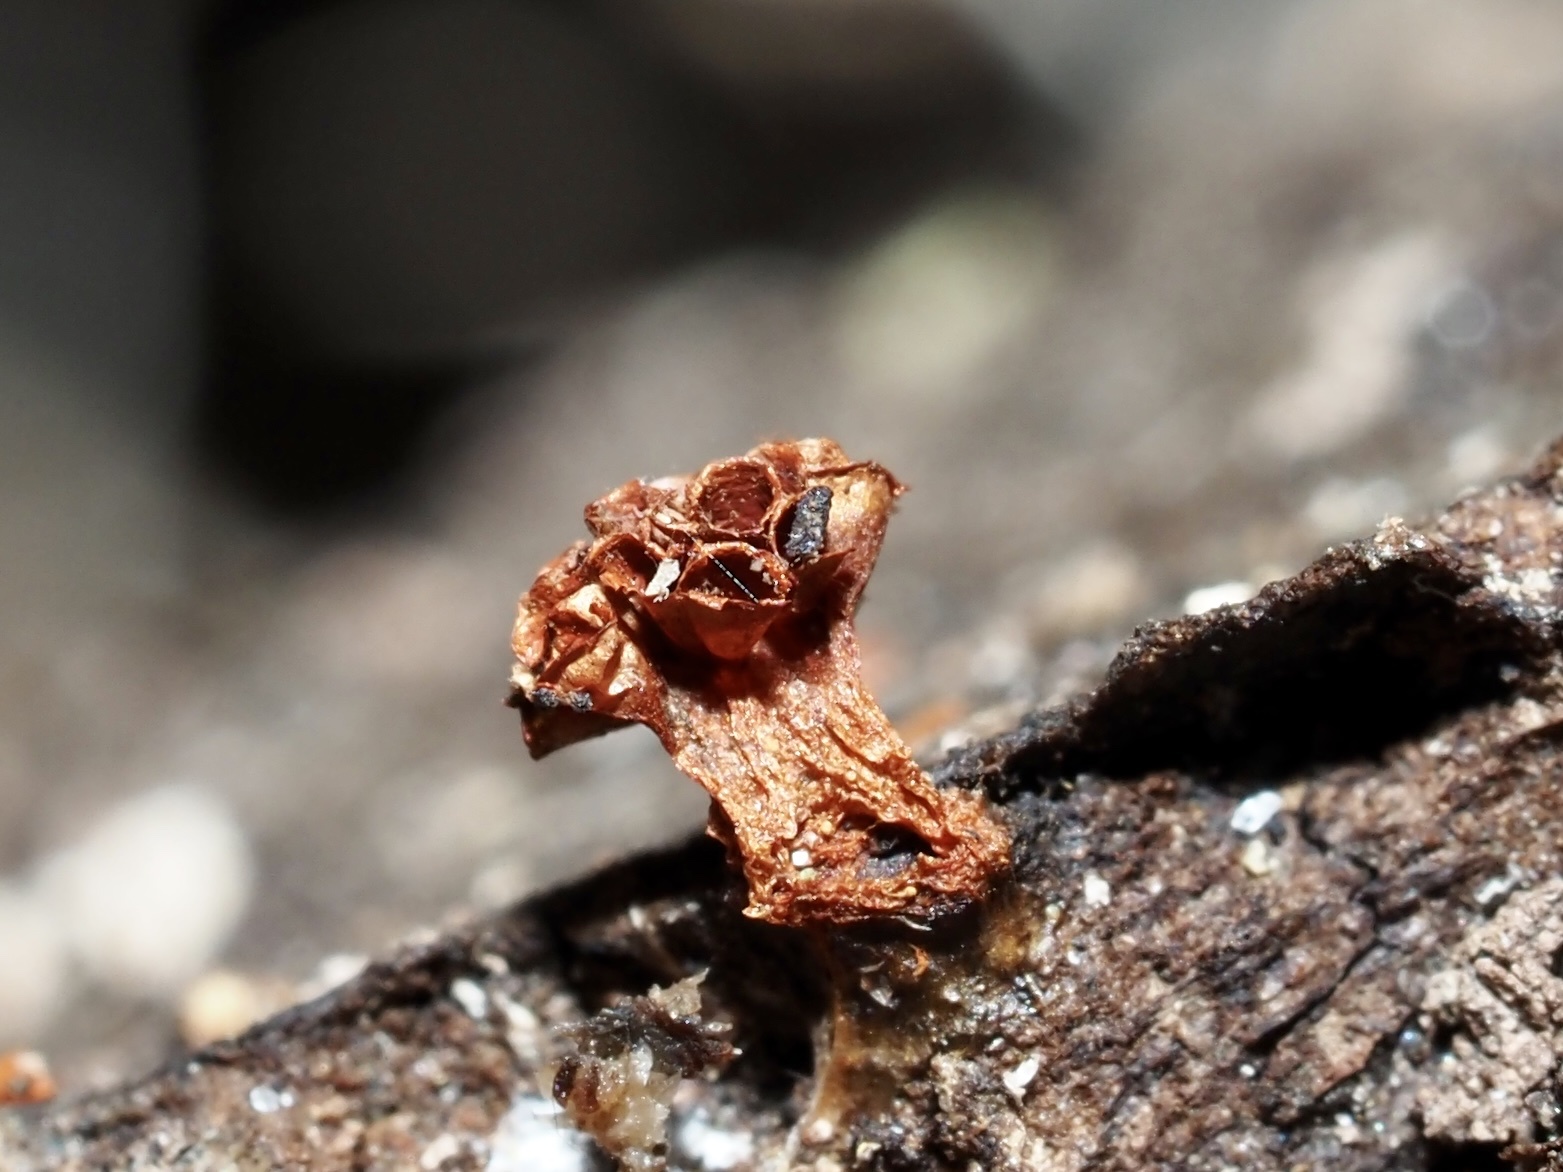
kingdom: Protozoa
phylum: Mycetozoa
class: Myxomycetes
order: Trichiales
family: Trichiaceae
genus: Metatrichia
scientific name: Metatrichia vesparia
